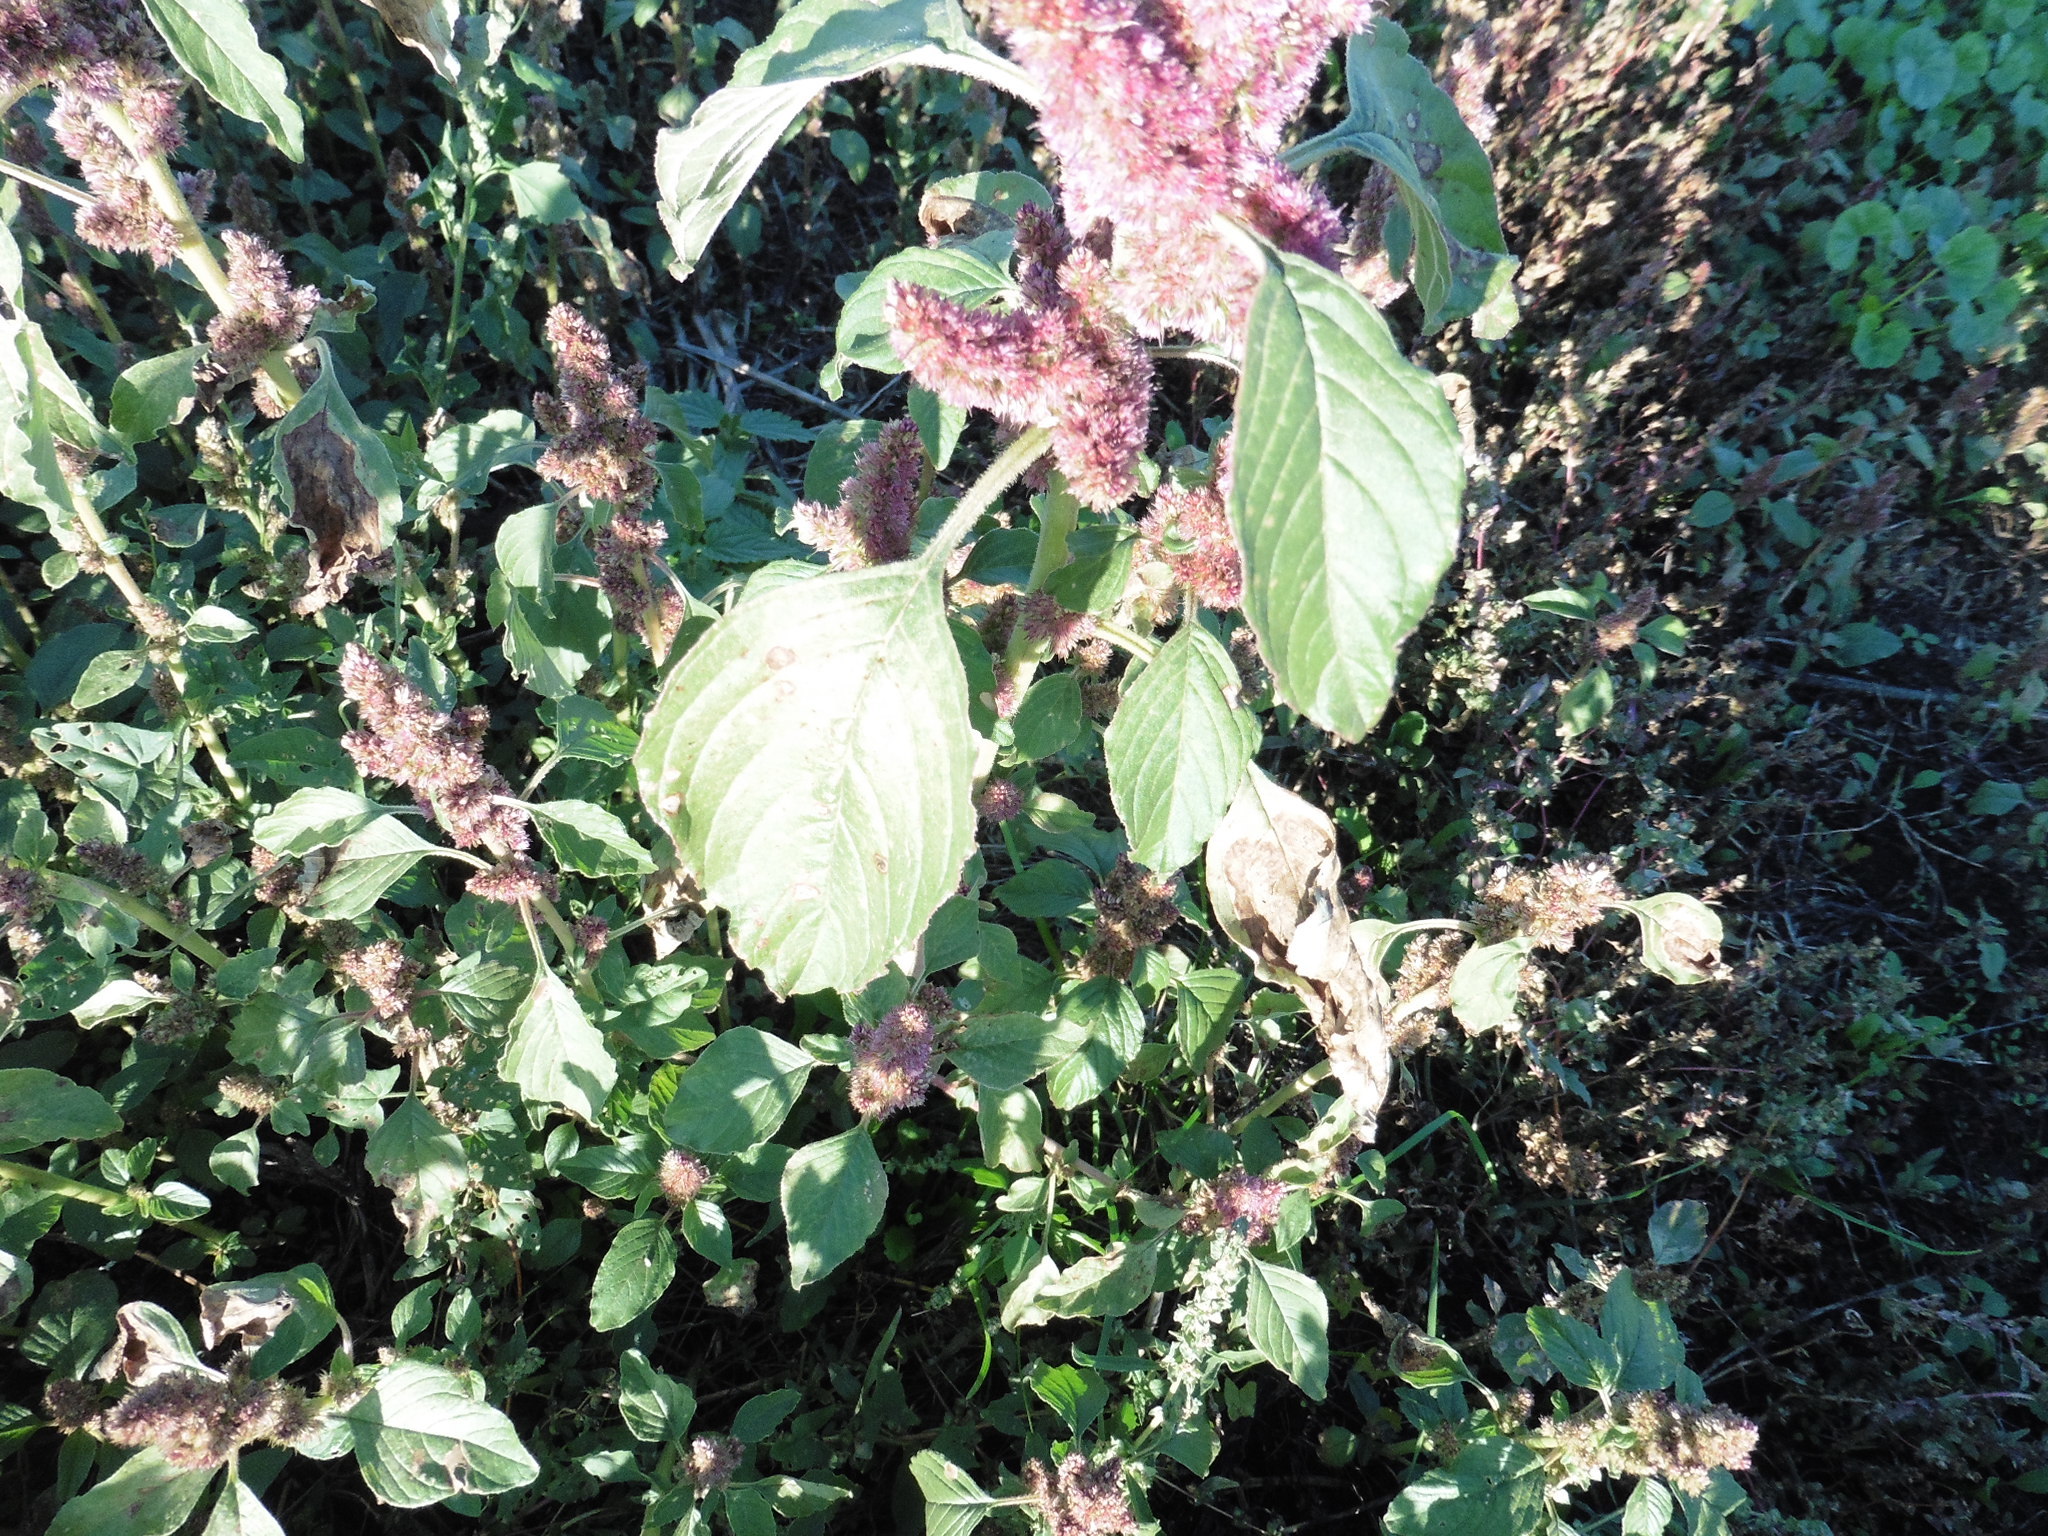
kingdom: Plantae
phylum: Tracheophyta
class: Magnoliopsida
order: Caryophyllales
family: Amaranthaceae
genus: Amaranthus
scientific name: Amaranthus retroflexus
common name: Redroot amaranth
